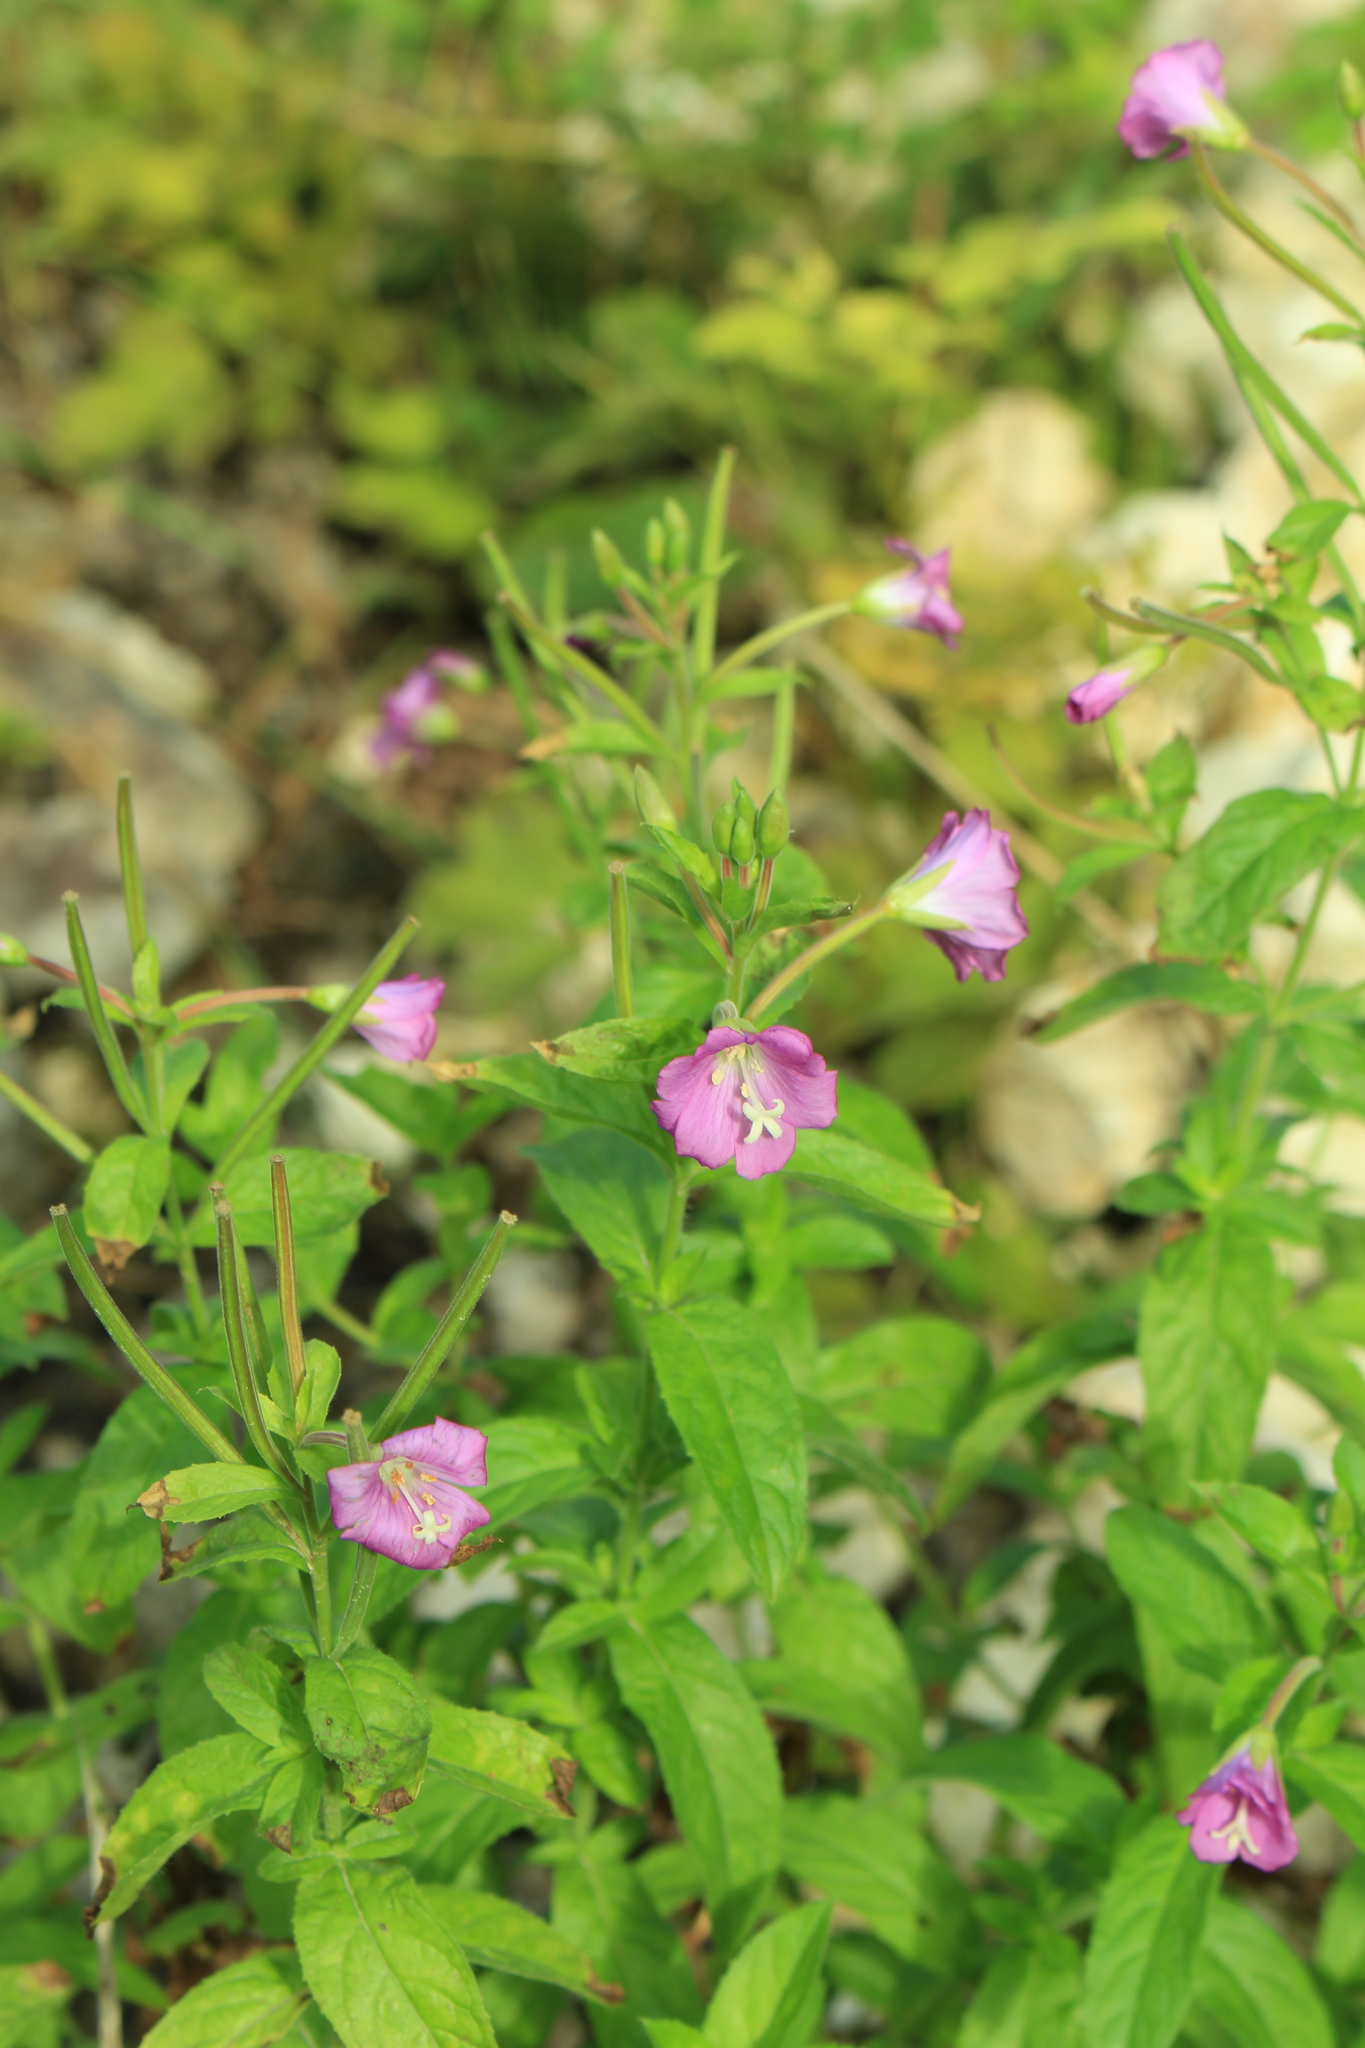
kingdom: Plantae
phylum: Tracheophyta
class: Magnoliopsida
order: Myrtales
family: Onagraceae
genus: Epilobium
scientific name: Epilobium hirsutum
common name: Great willowherb
